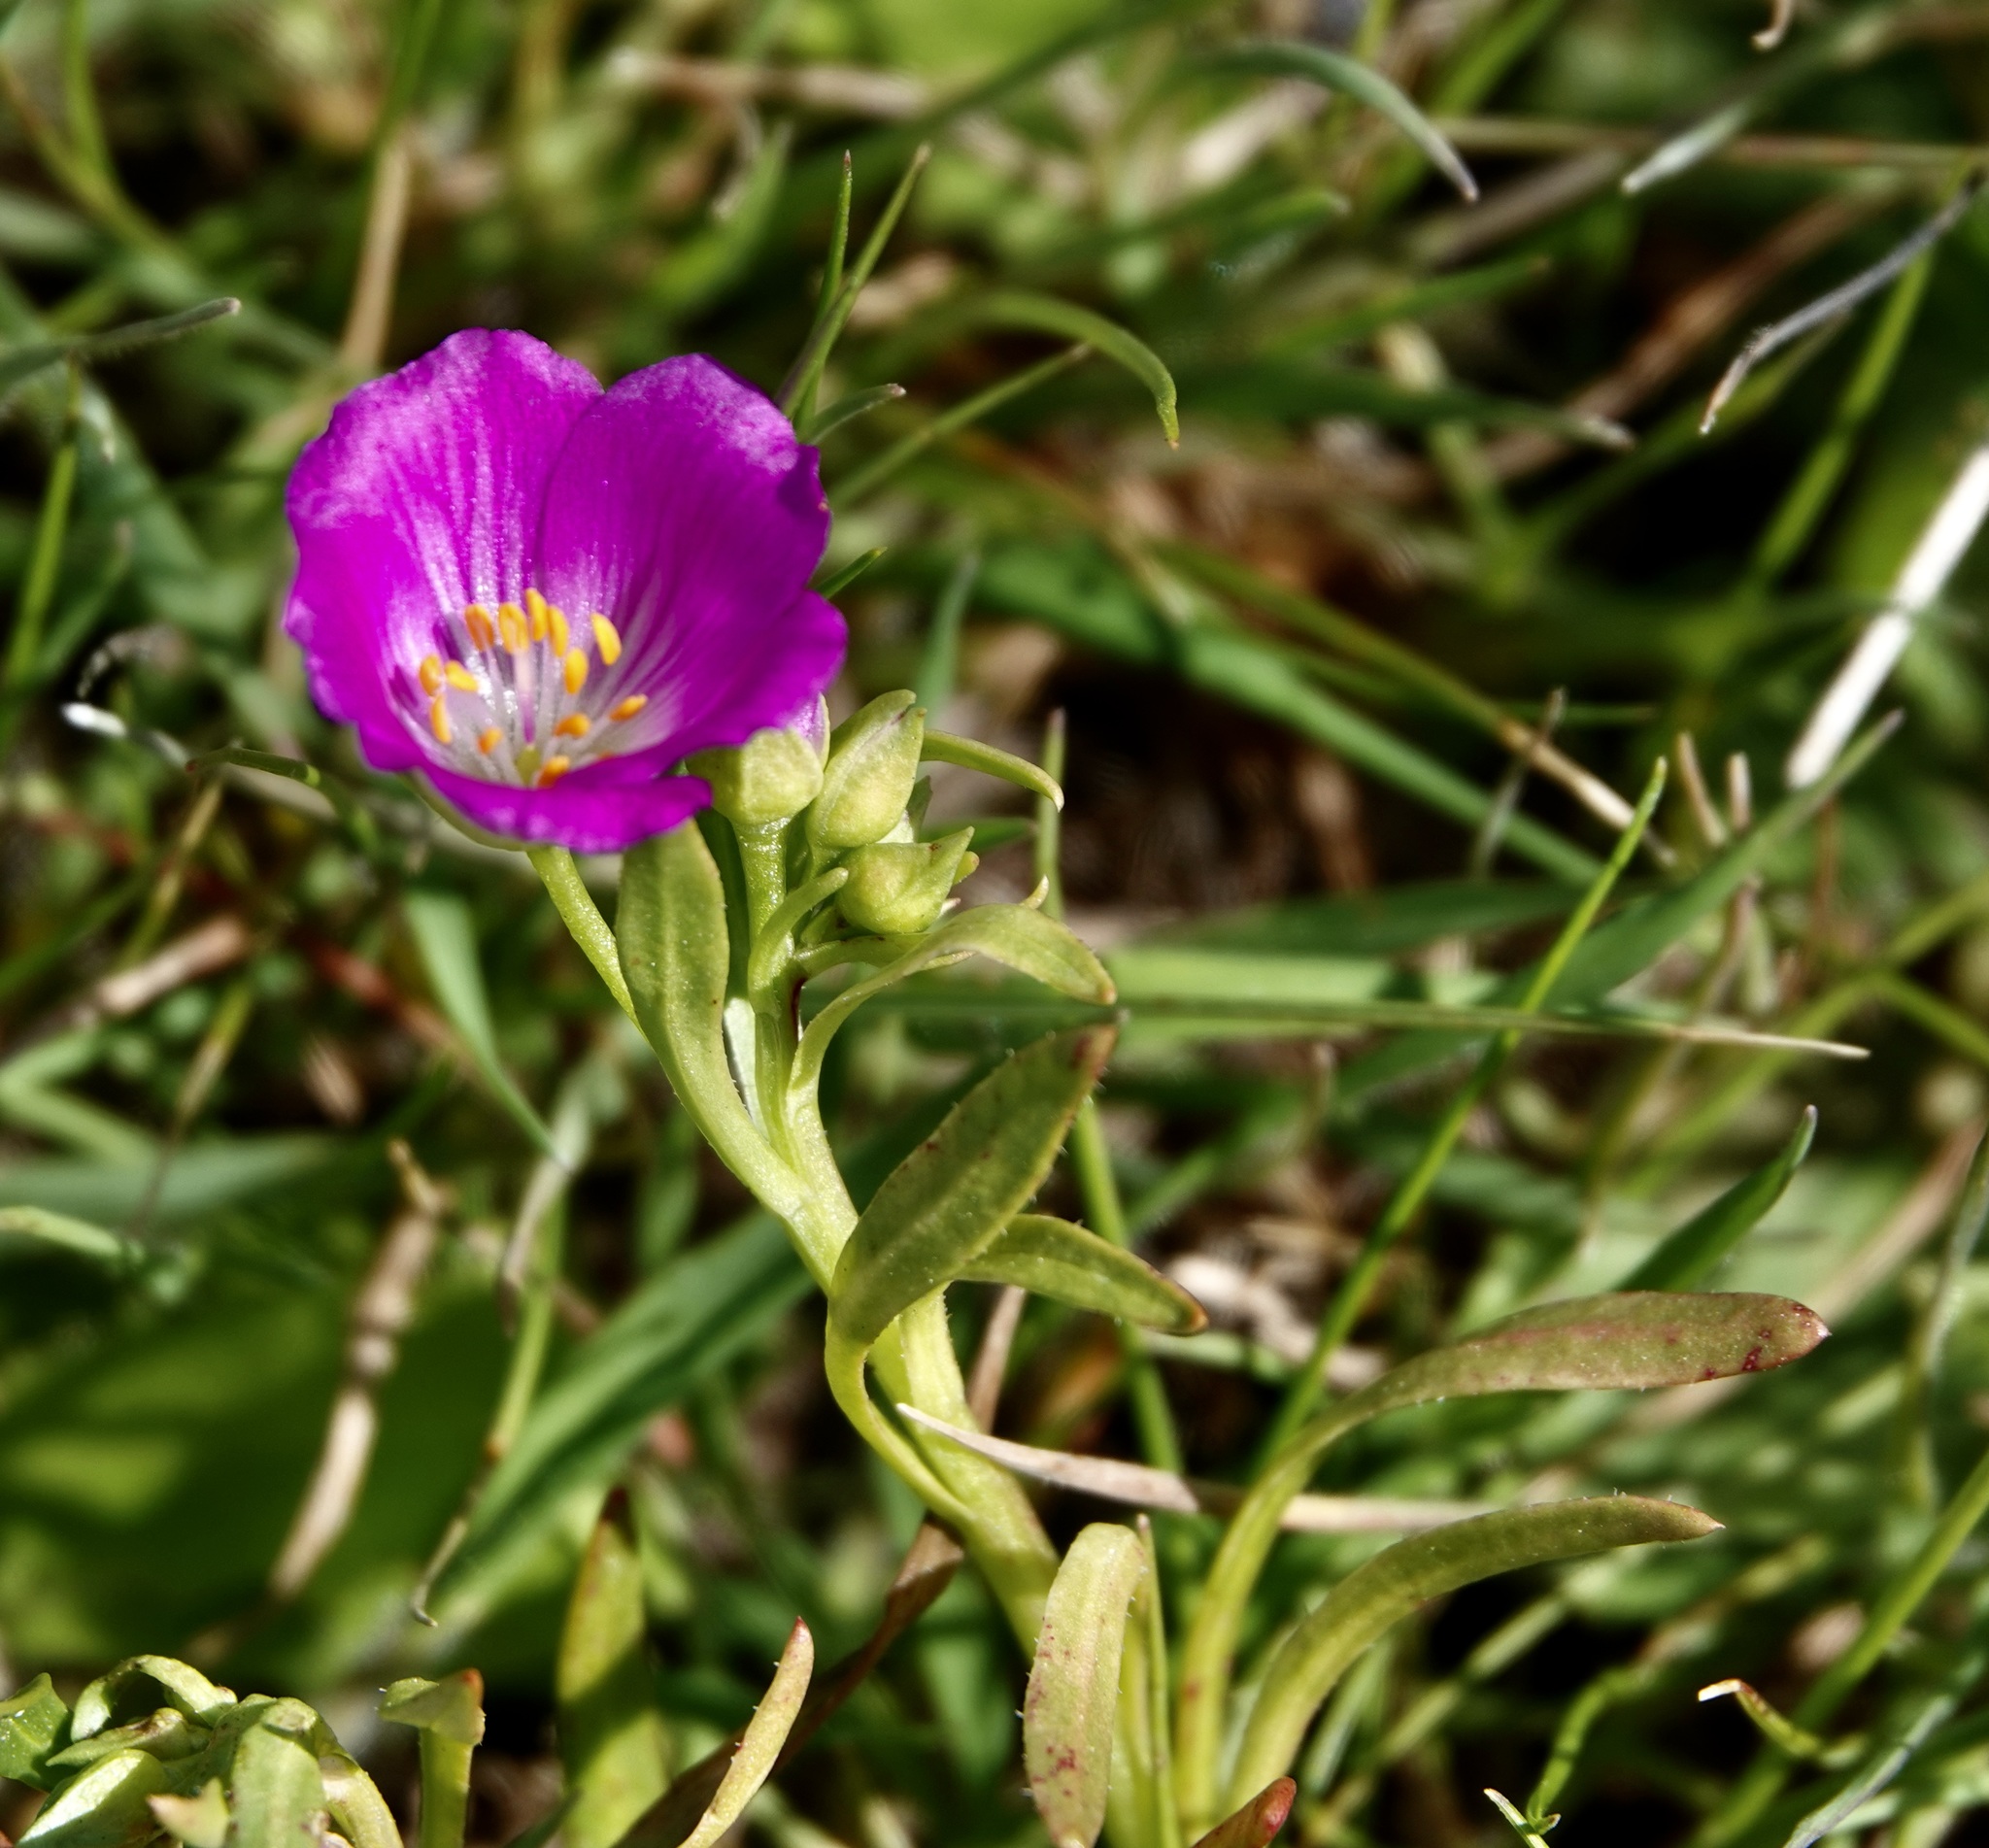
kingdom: Plantae
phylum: Tracheophyta
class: Magnoliopsida
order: Caryophyllales
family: Montiaceae
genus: Calandrinia
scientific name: Calandrinia menziesii
